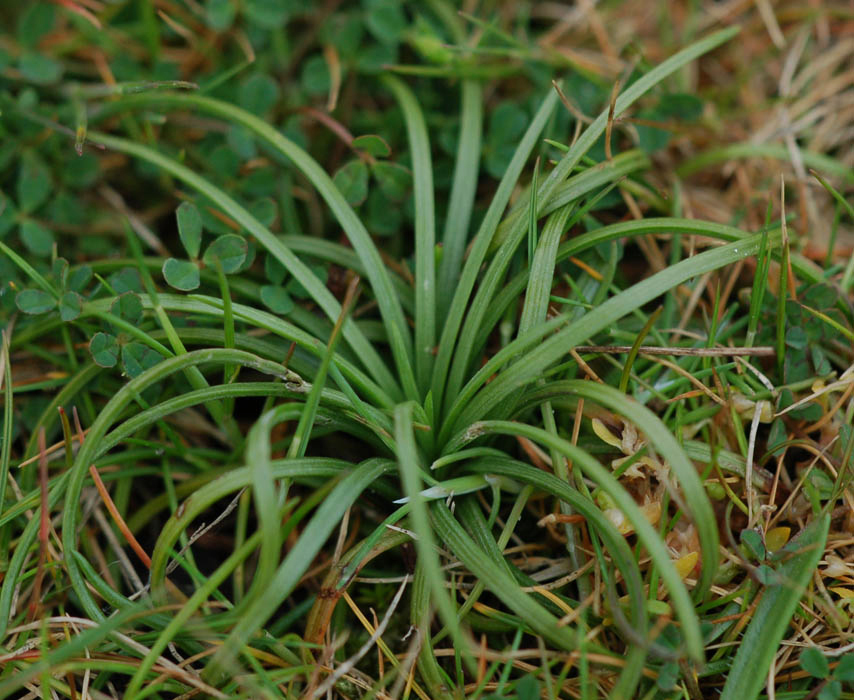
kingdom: Plantae
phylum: Tracheophyta
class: Lycopodiopsida
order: Isoetales
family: Isoetaceae
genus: Isoetes
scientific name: Isoetes histrix
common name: Land quillwort
